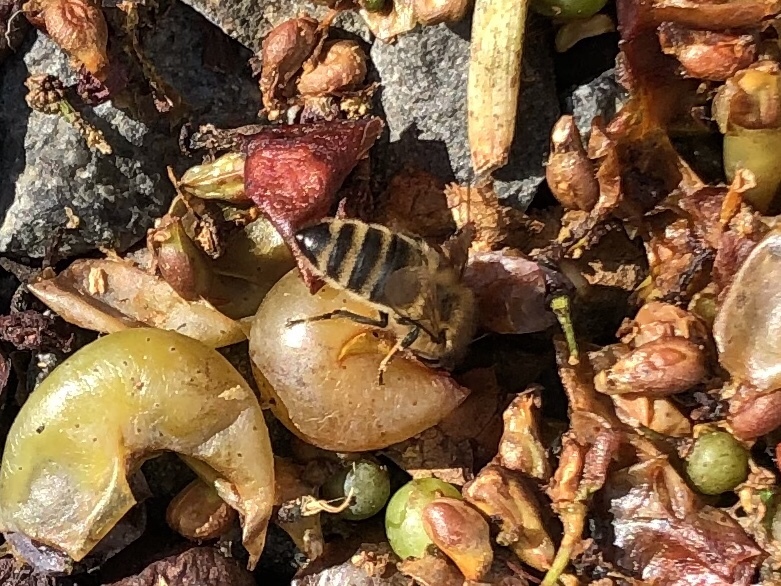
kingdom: Animalia
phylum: Arthropoda
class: Insecta
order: Hymenoptera
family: Apidae
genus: Apis
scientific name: Apis mellifera
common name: Honey bee
